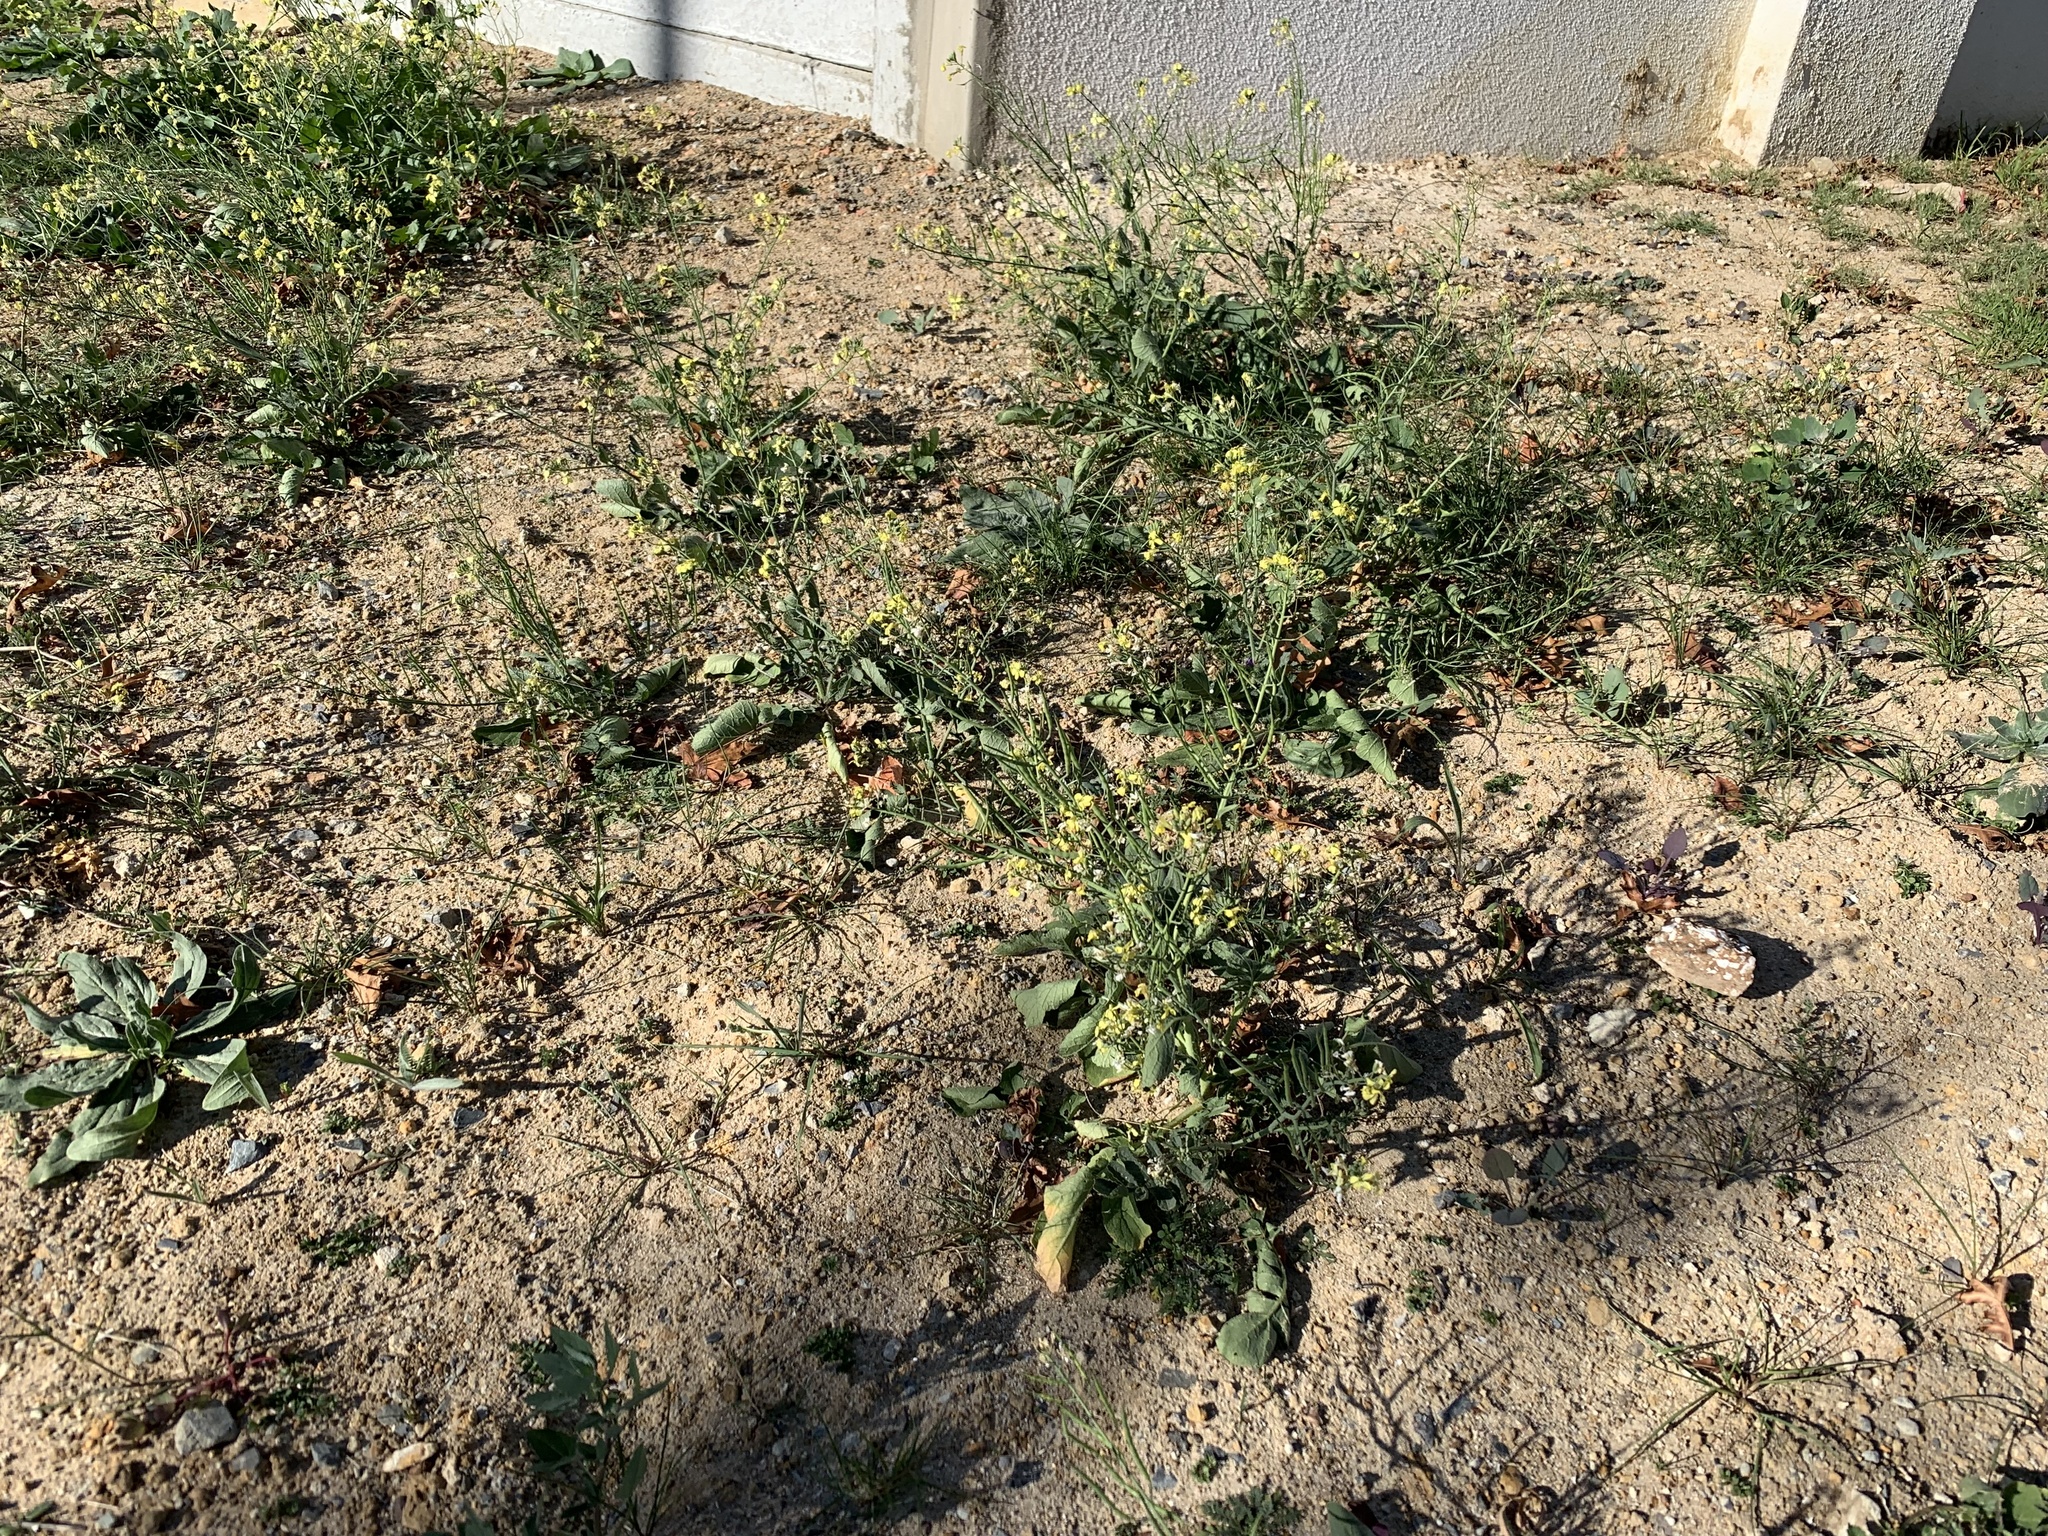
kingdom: Plantae
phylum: Tracheophyta
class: Magnoliopsida
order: Brassicales
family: Brassicaceae
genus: Raphanus
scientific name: Raphanus raphanistrum
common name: Wild radish
